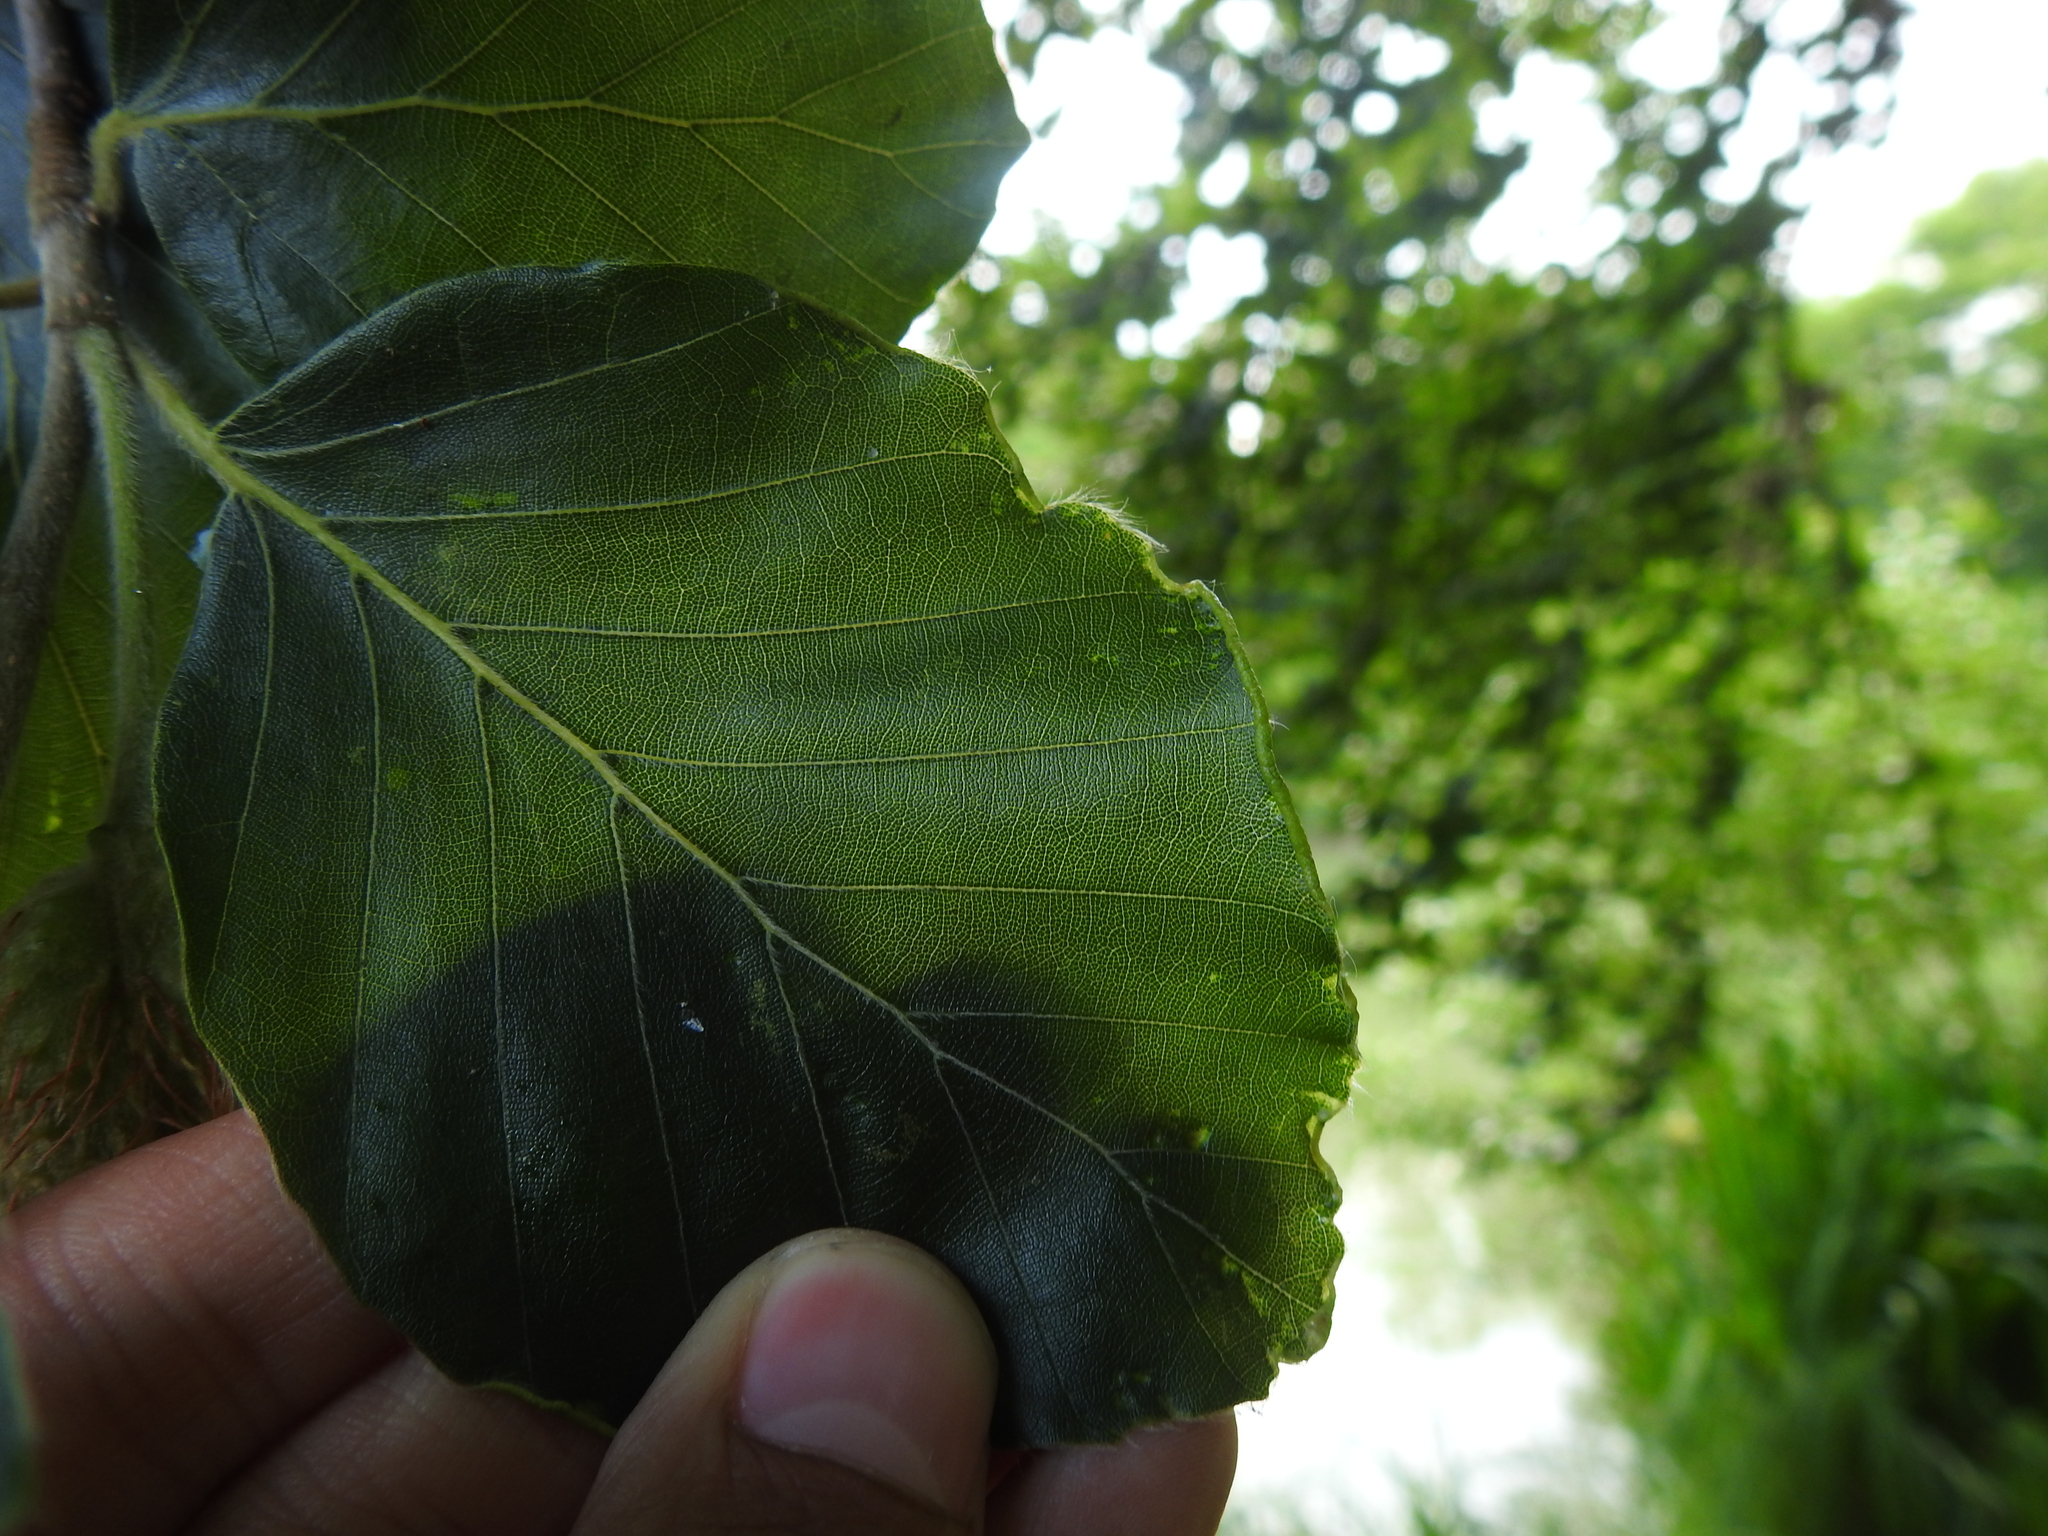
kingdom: Animalia
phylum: Arthropoda
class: Arachnida
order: Trombidiformes
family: Eriophyidae
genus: Acalitus
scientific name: Acalitus stenaspis
